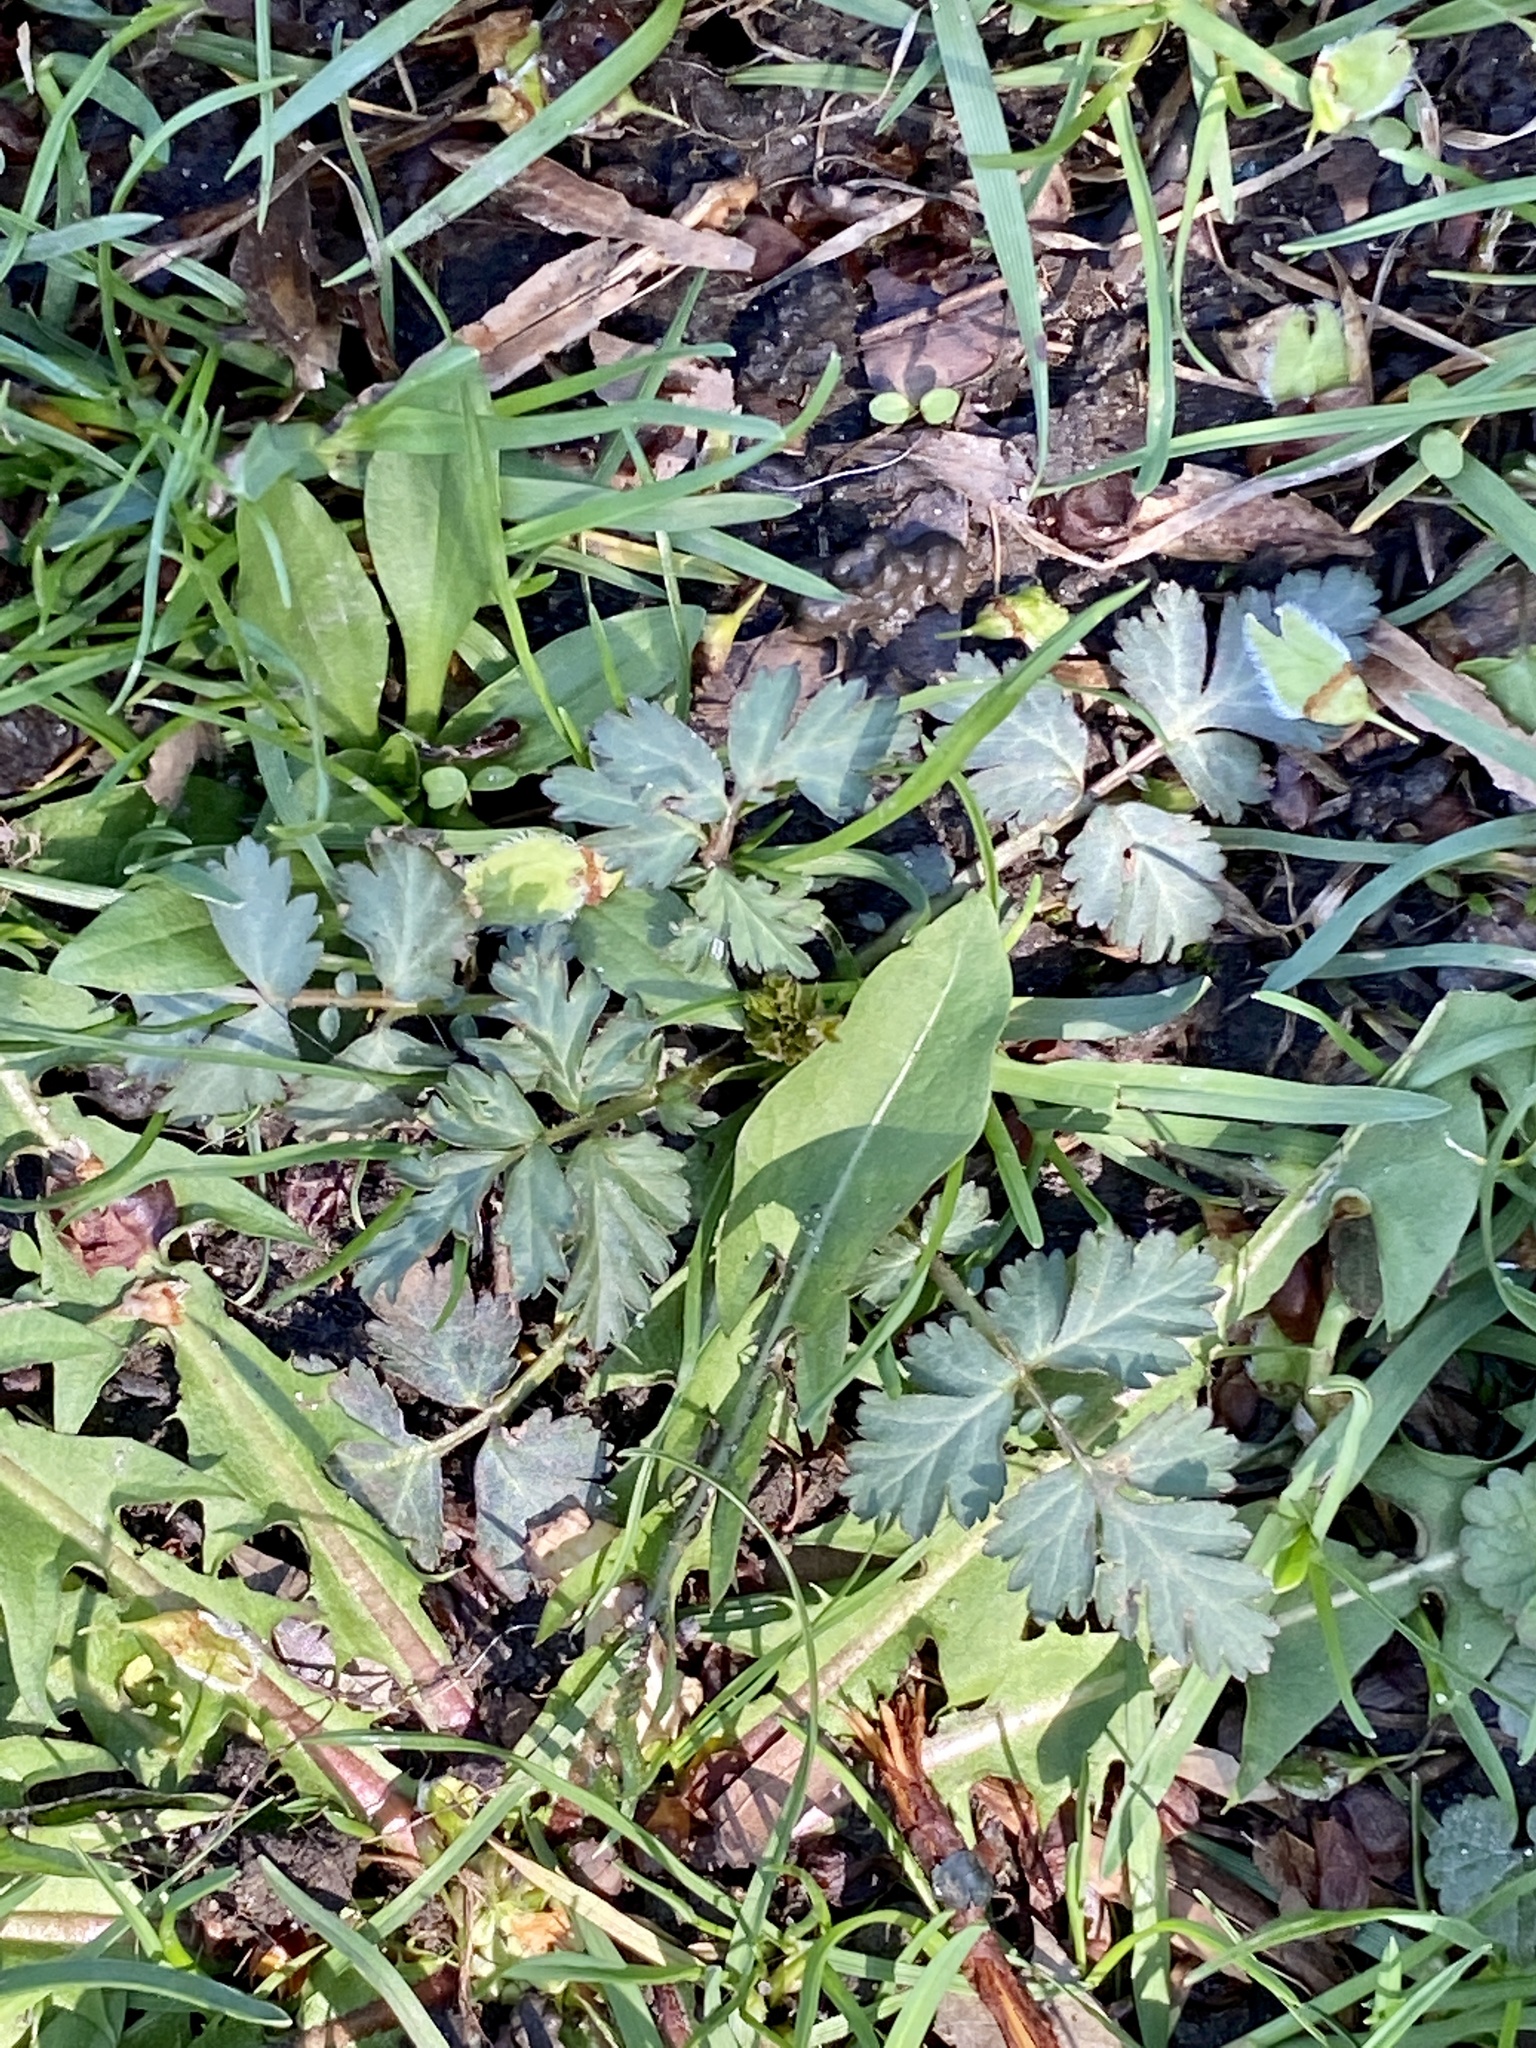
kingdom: Plantae
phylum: Tracheophyta
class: Magnoliopsida
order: Rosales
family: Rosaceae
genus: Geum
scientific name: Geum canadense
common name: White avens
